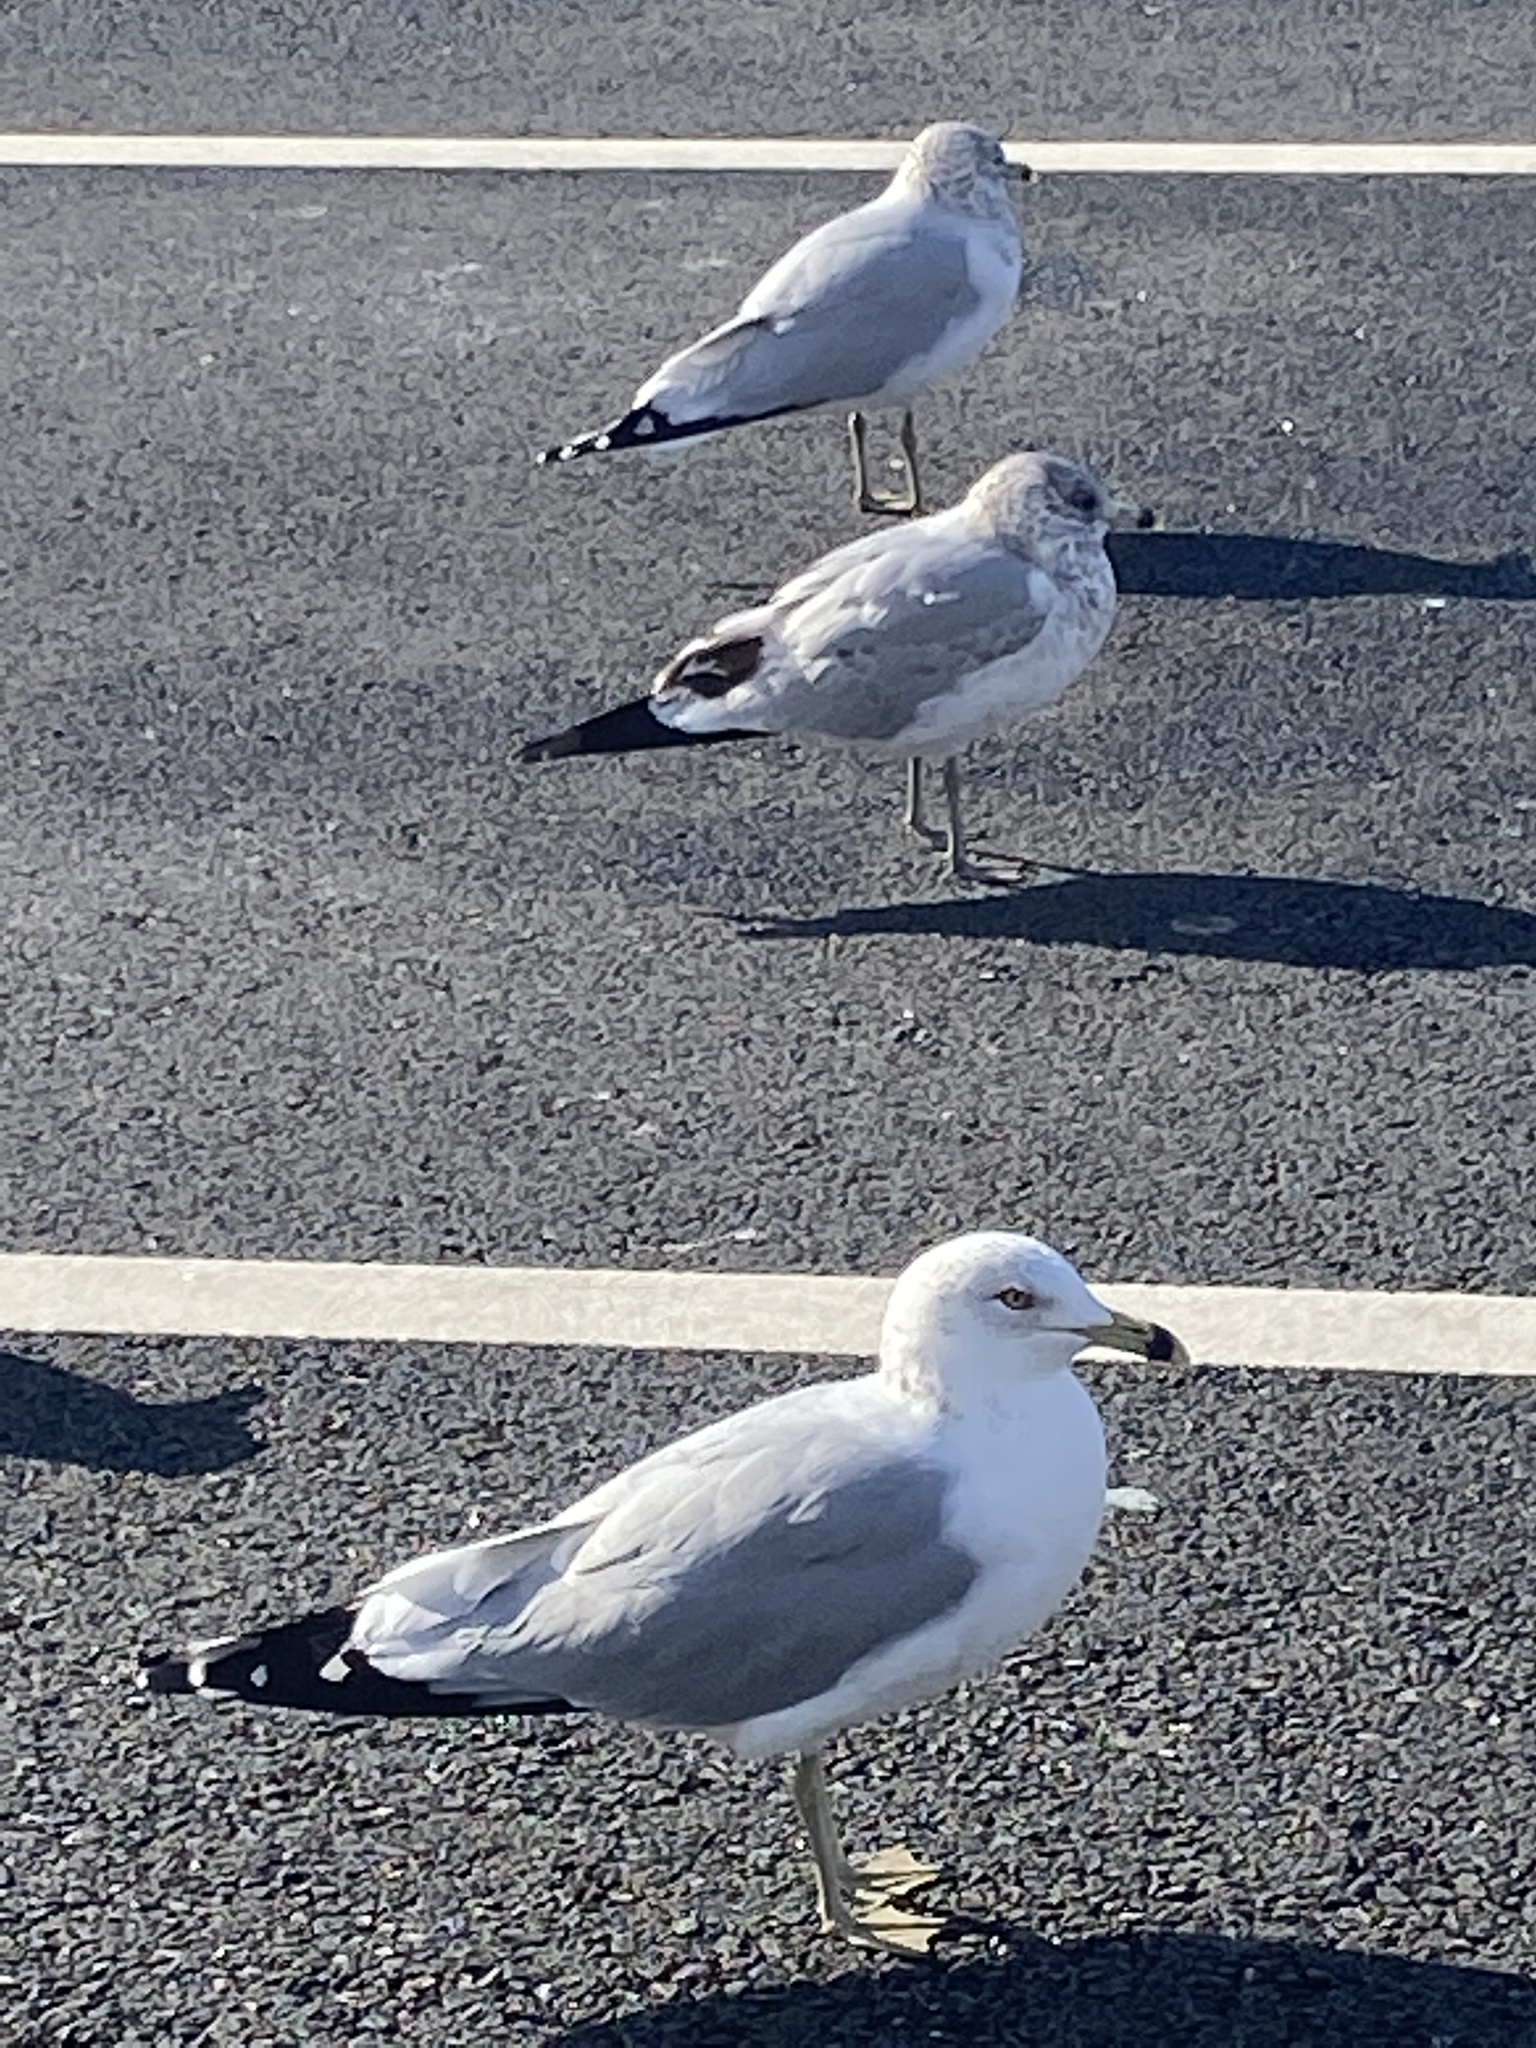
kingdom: Animalia
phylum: Chordata
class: Aves
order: Charadriiformes
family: Laridae
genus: Larus
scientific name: Larus delawarensis
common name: Ring-billed gull
